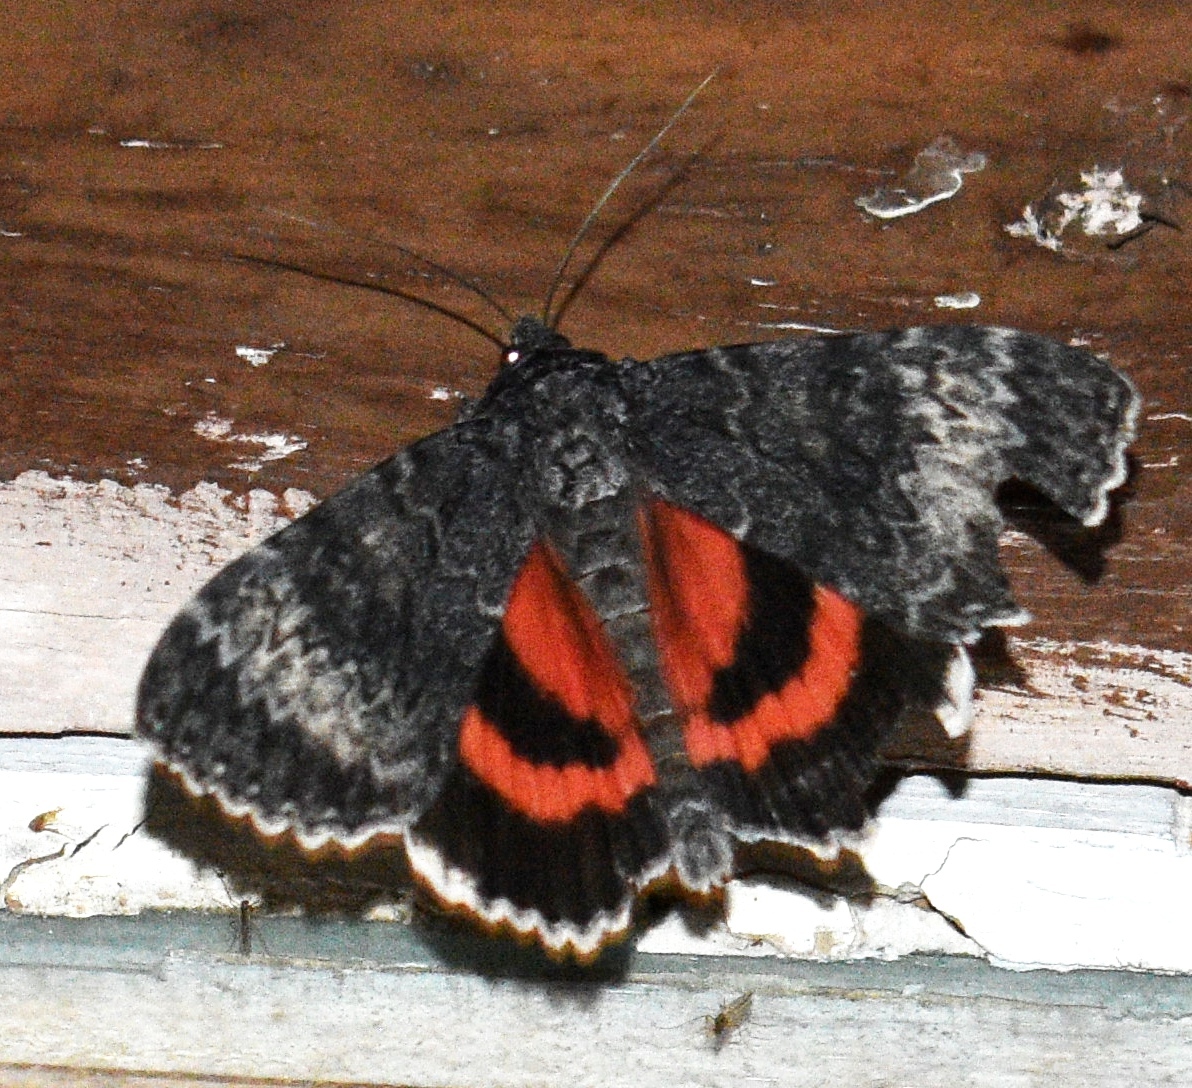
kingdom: Animalia
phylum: Arthropoda
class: Insecta
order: Lepidoptera
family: Erebidae
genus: Catocala
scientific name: Catocala grotiana
